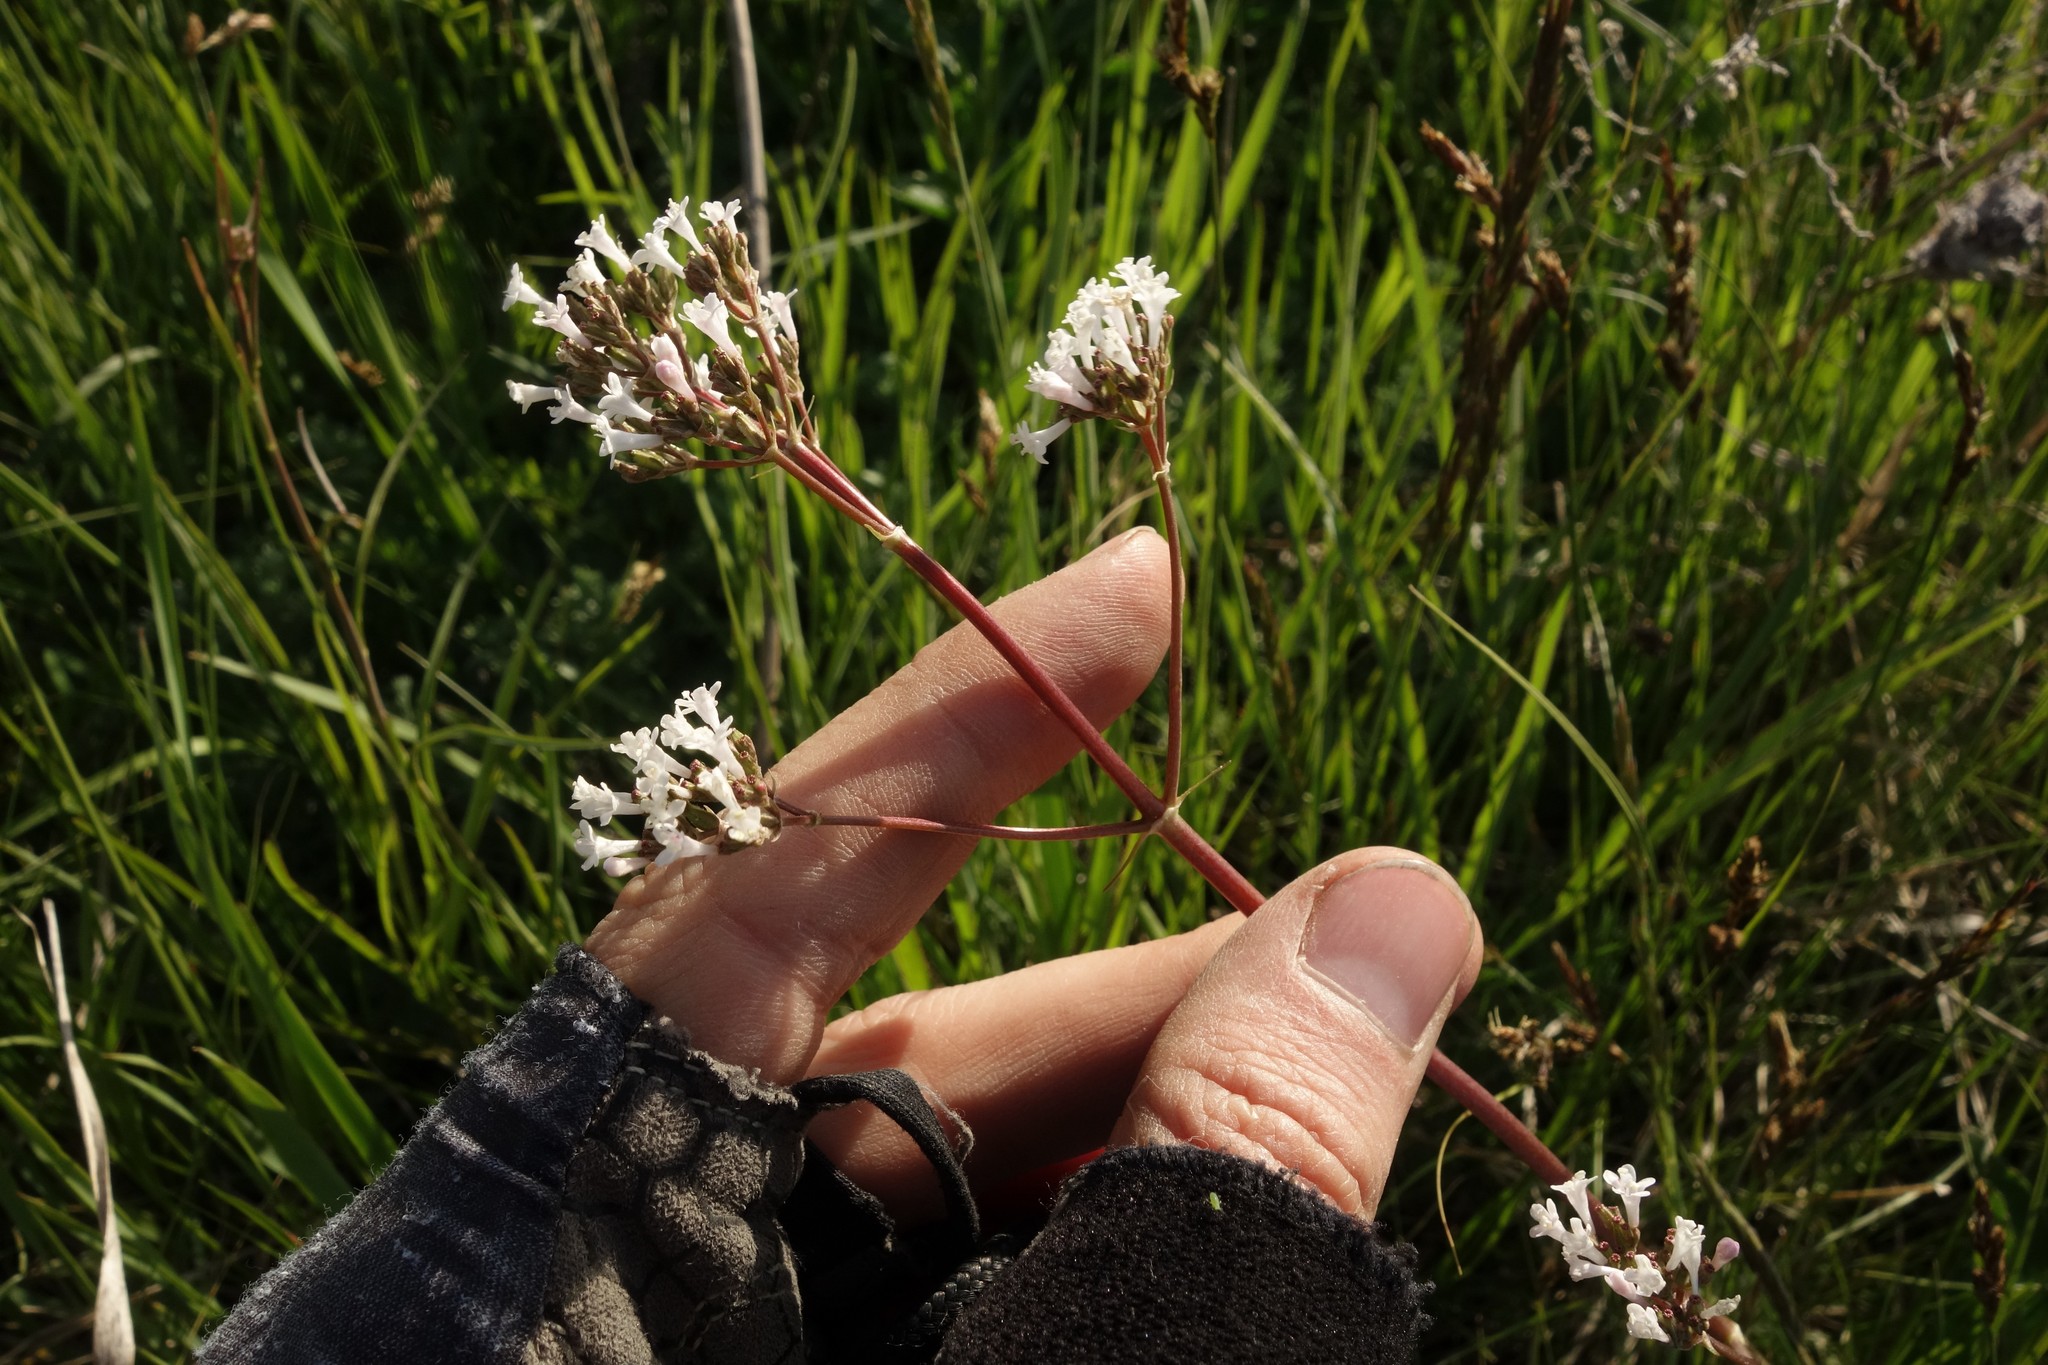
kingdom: Plantae
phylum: Tracheophyta
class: Magnoliopsida
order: Dipsacales
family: Caprifoliaceae
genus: Valeriana
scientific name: Valeriana tuberosa
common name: Tuberous valerian
